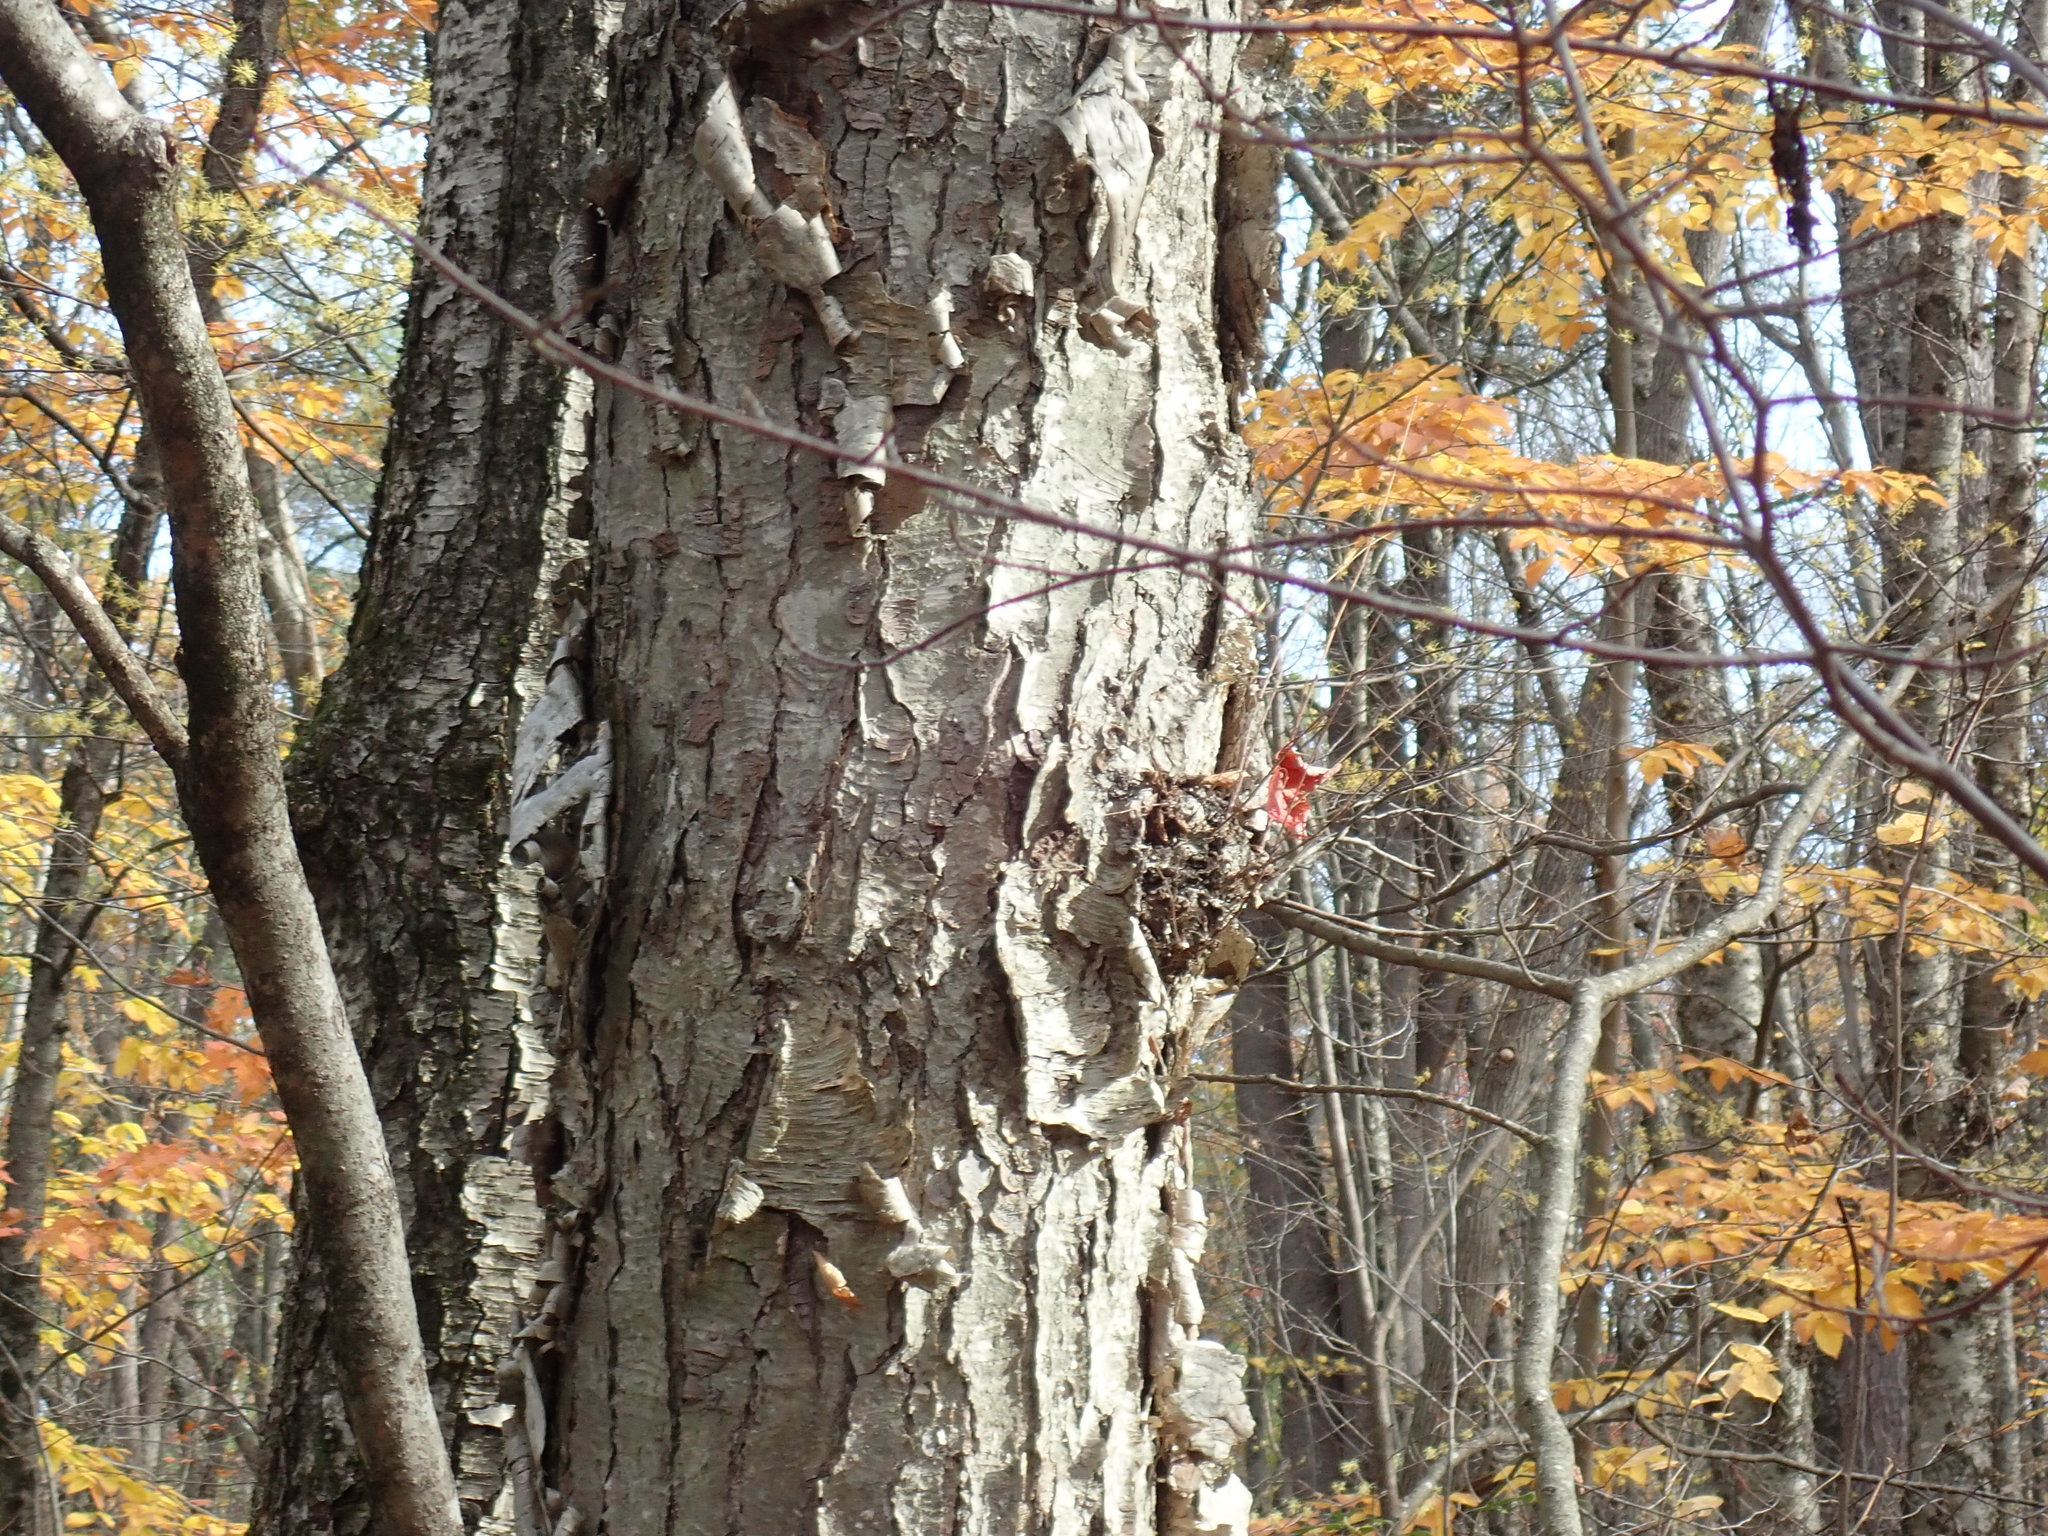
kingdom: Plantae
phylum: Tracheophyta
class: Magnoliopsida
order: Fagales
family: Betulaceae
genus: Betula
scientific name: Betula alleghaniensis
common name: Yellow birch
